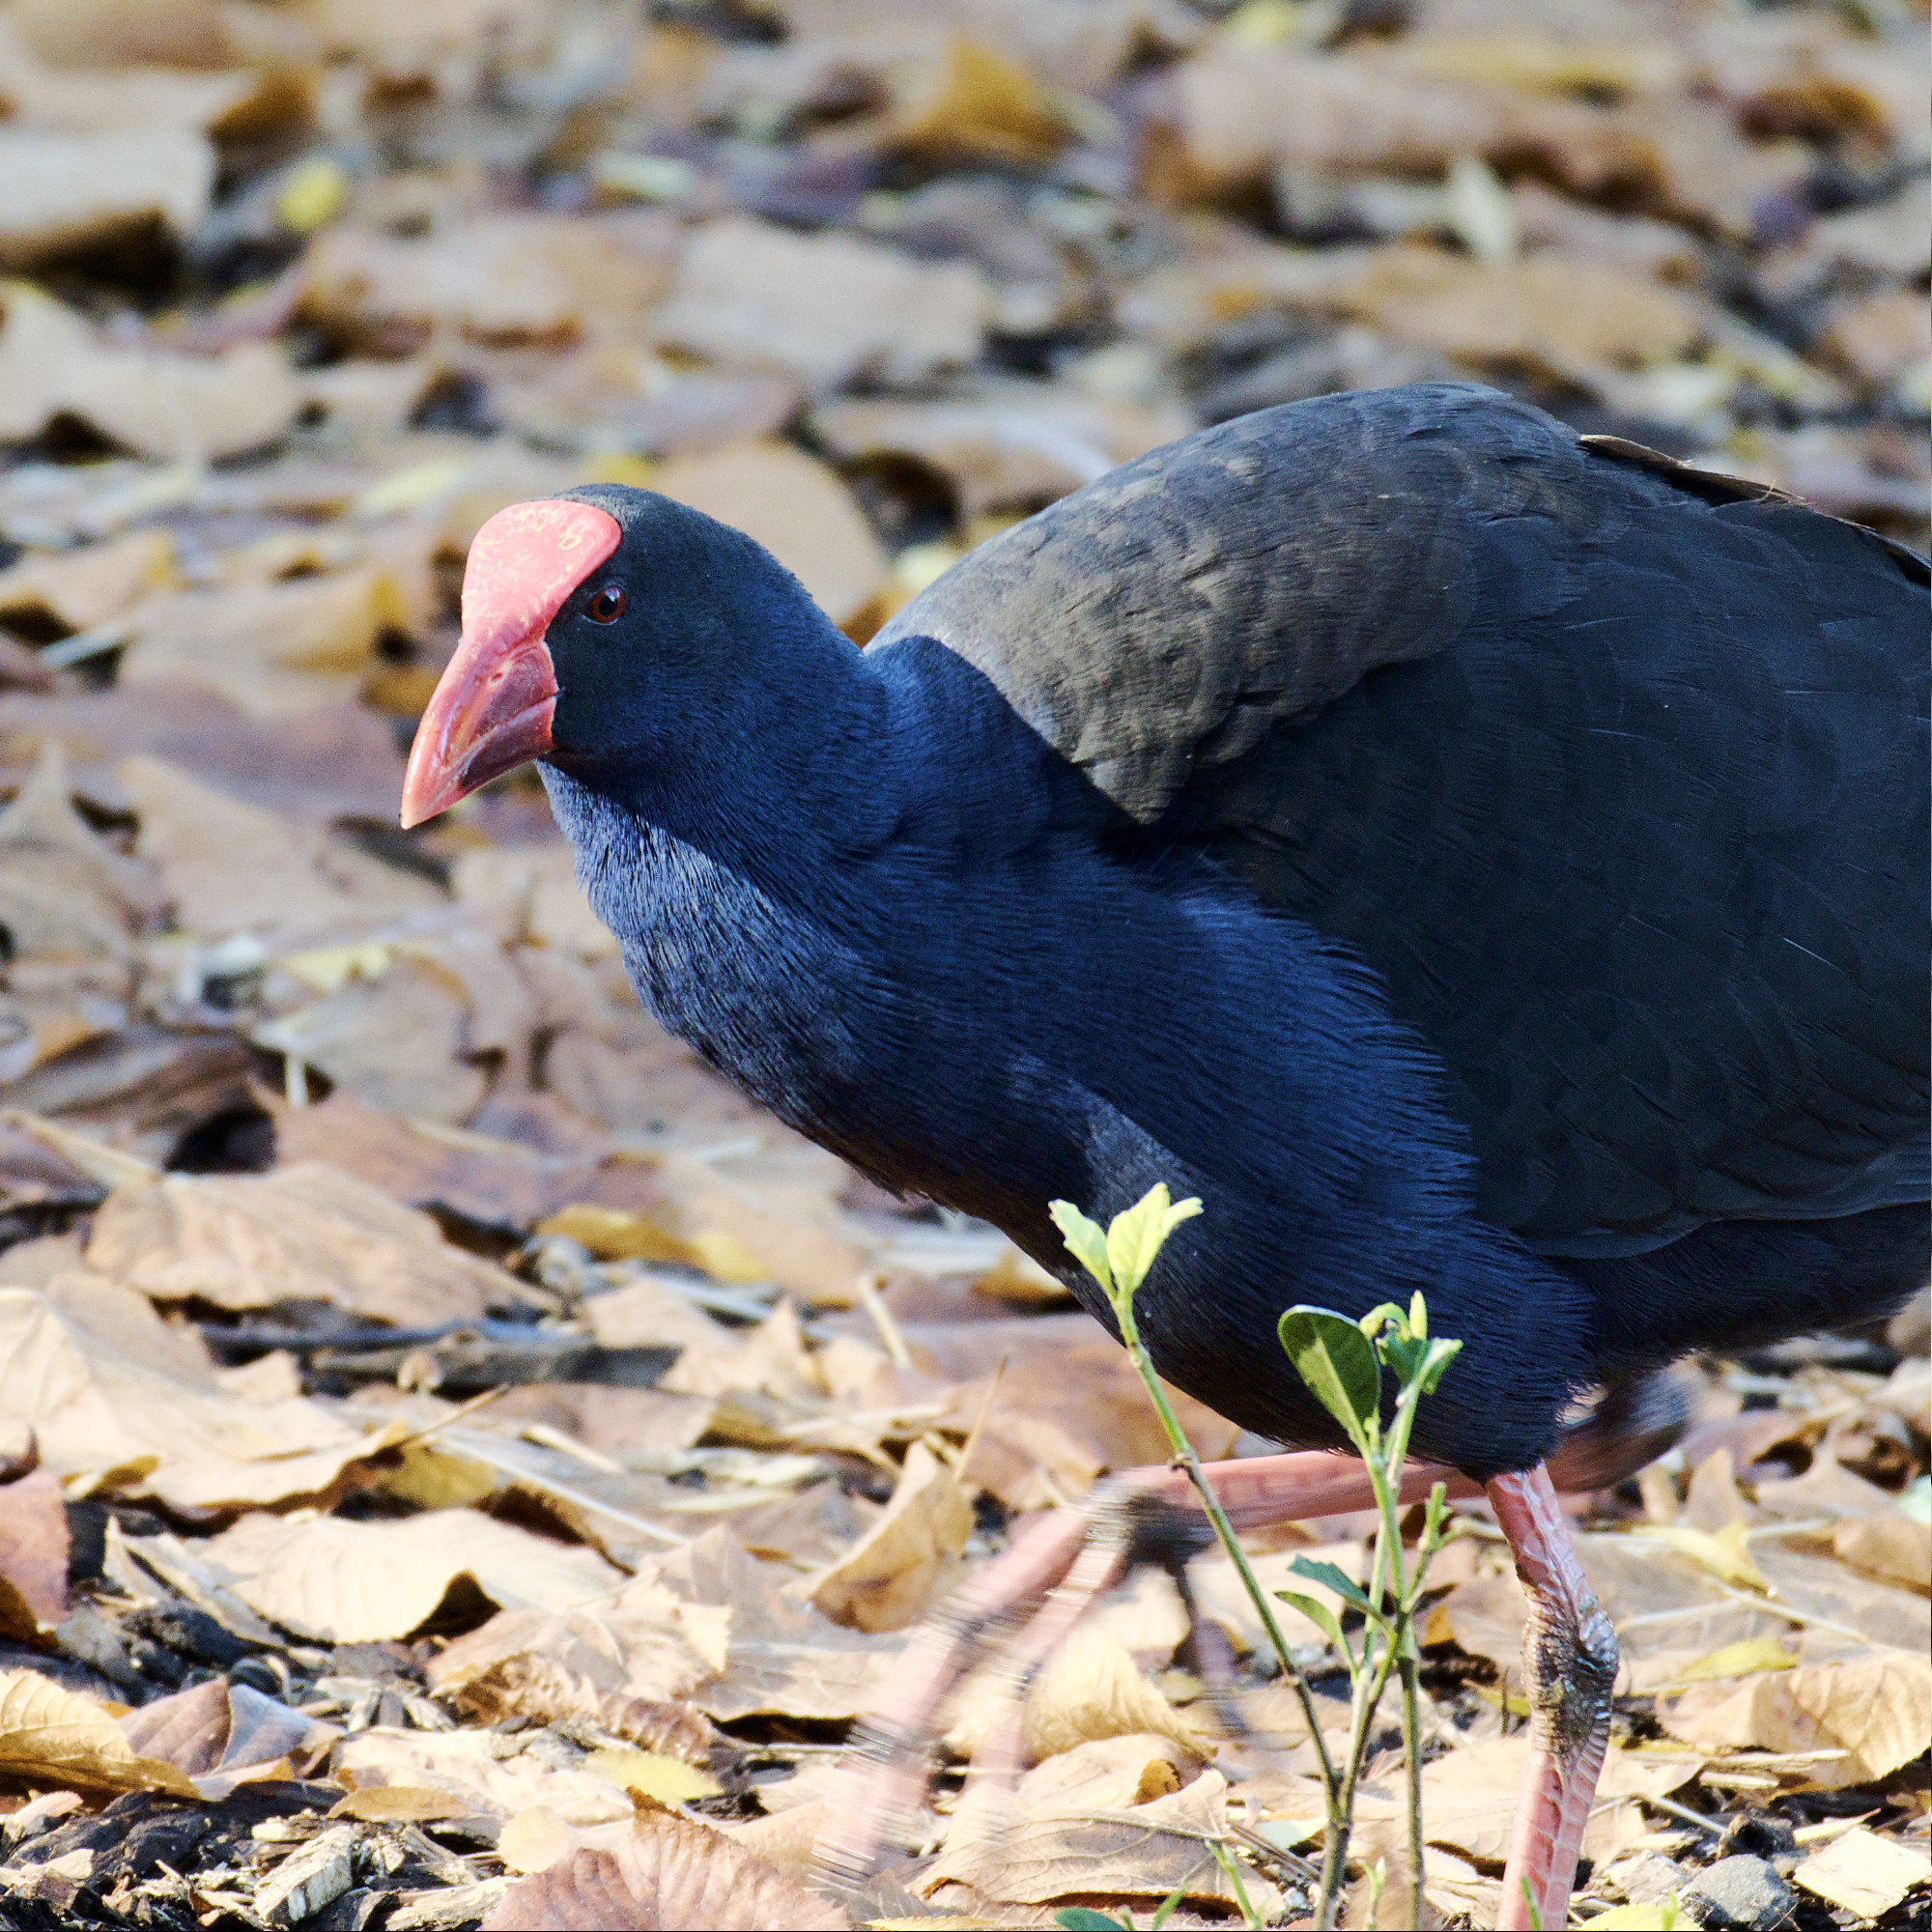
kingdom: Animalia
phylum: Chordata
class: Aves
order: Gruiformes
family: Rallidae
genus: Porphyrio
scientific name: Porphyrio melanotus
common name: Australasian swamphen
